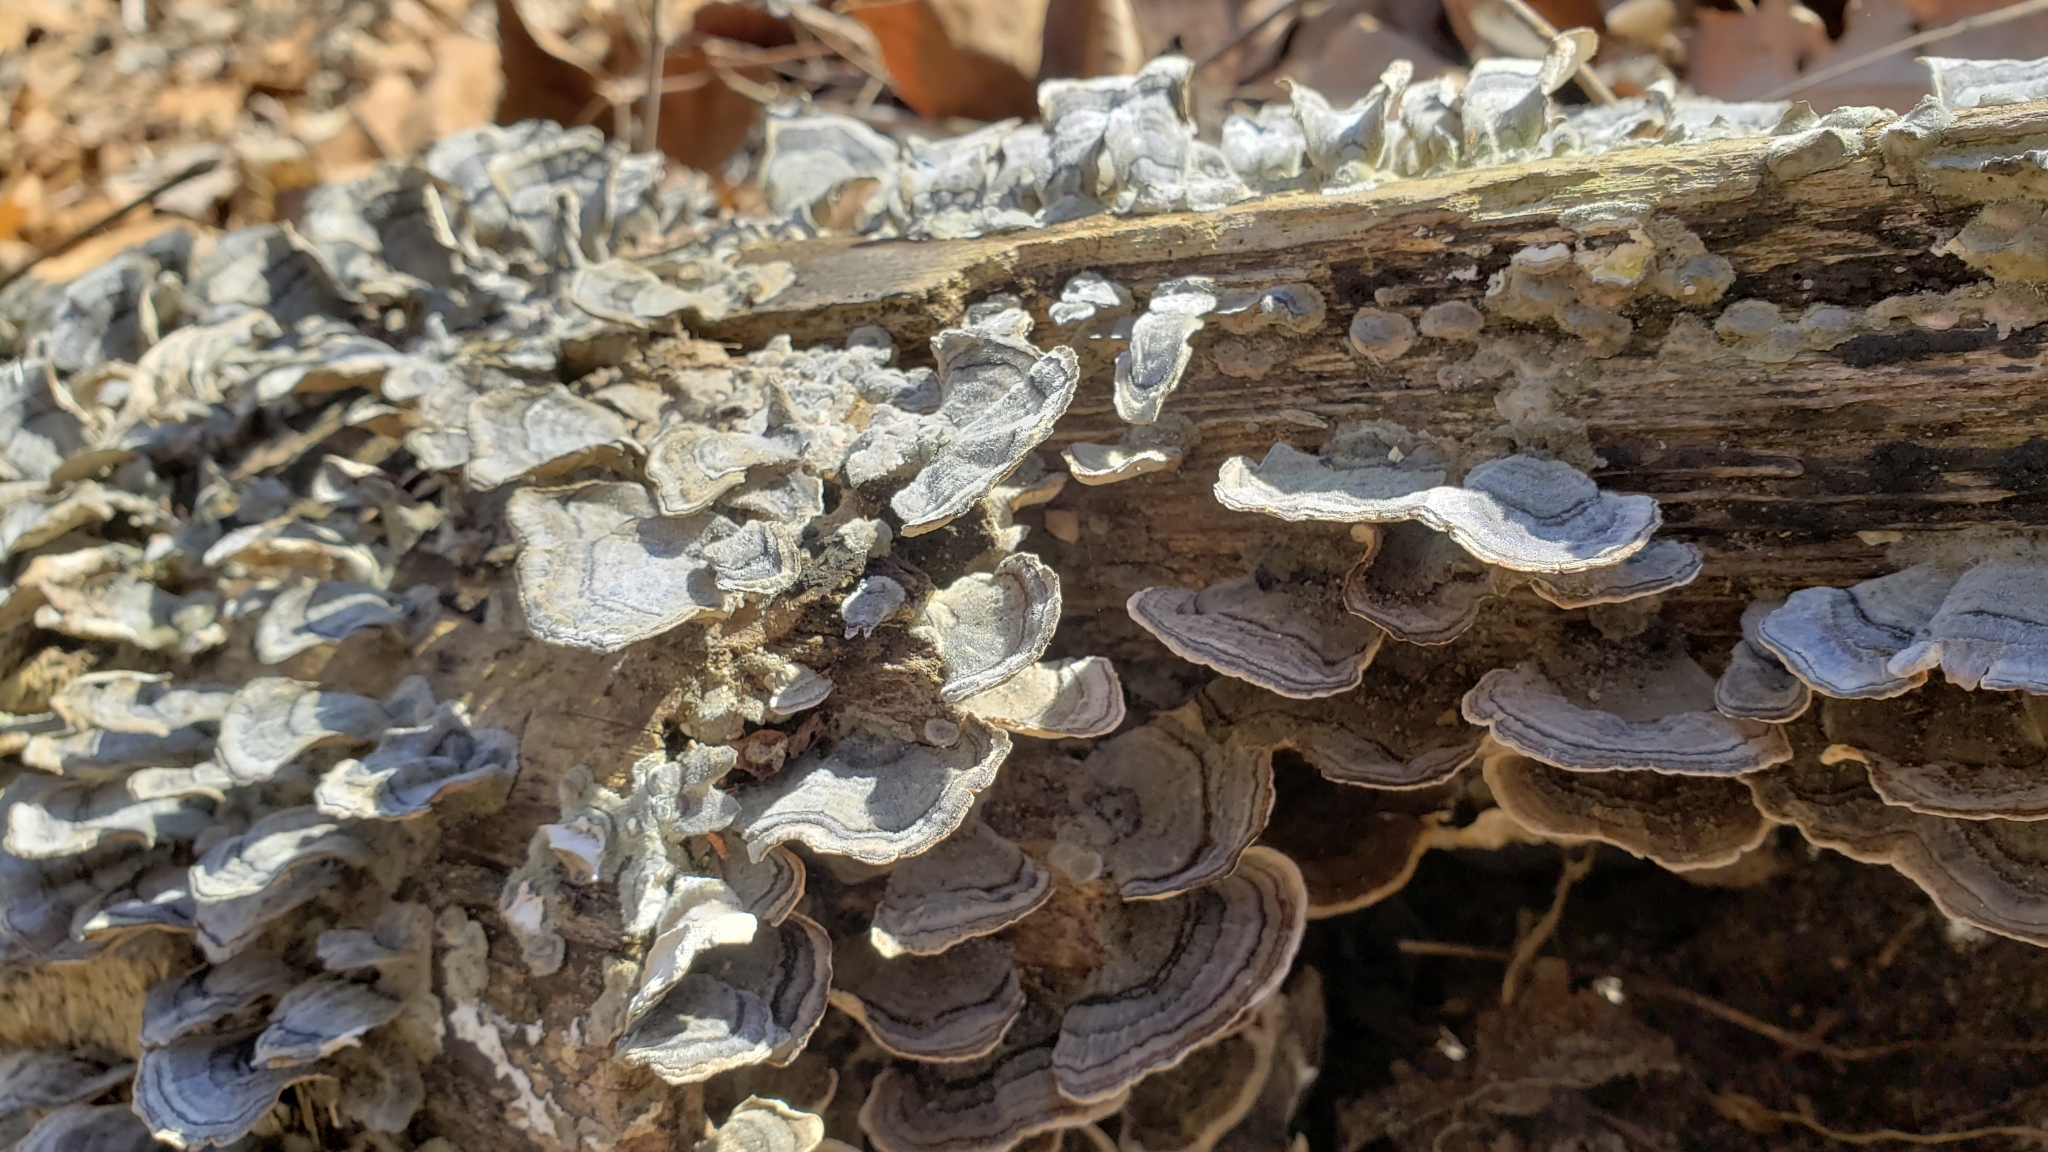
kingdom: Fungi
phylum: Basidiomycota
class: Agaricomycetes
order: Polyporales
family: Polyporaceae
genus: Trametes
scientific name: Trametes versicolor
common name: Turkeytail
